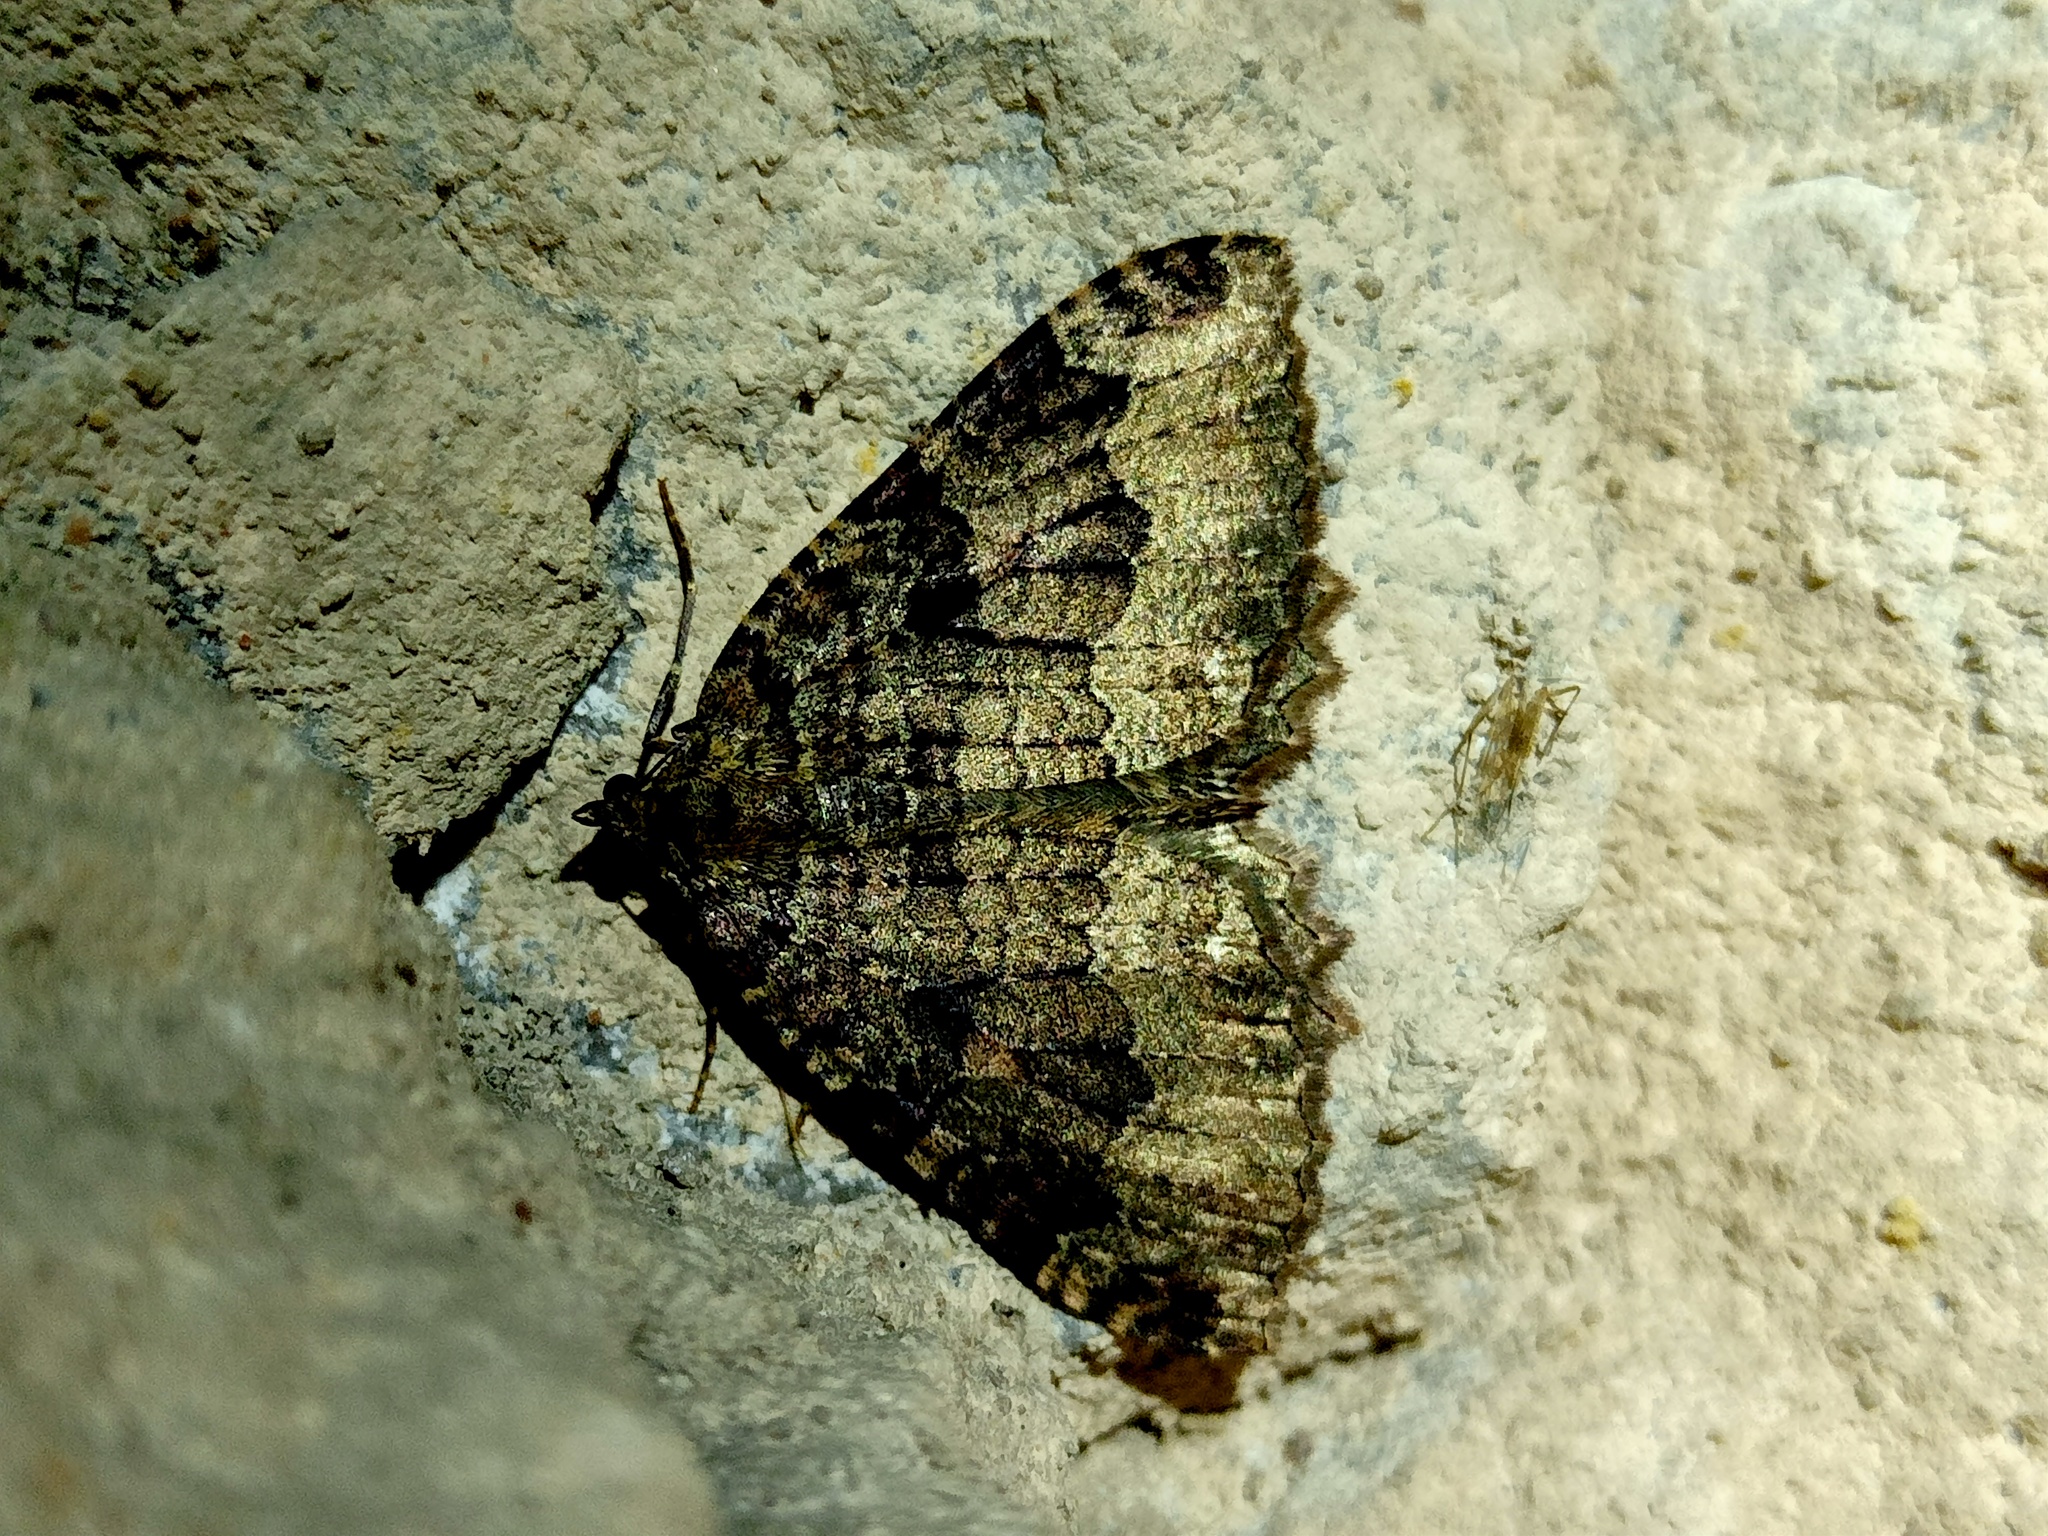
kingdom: Animalia
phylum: Arthropoda
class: Insecta
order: Lepidoptera
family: Geometridae
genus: Triphosa
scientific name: Triphosa dubitata
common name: Tissue
